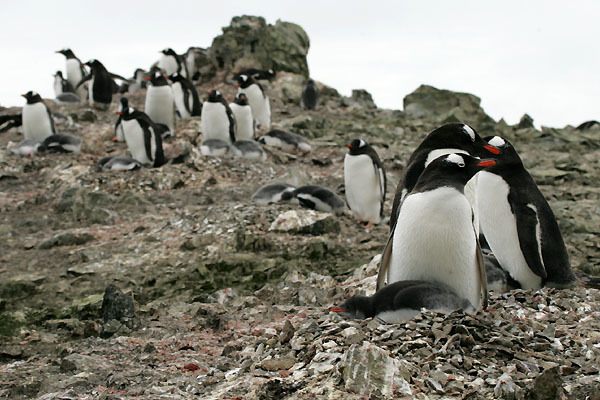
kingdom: Animalia
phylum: Chordata
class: Aves
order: Sphenisciformes
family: Spheniscidae
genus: Pygoscelis
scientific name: Pygoscelis papua
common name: Gentoo penguin
